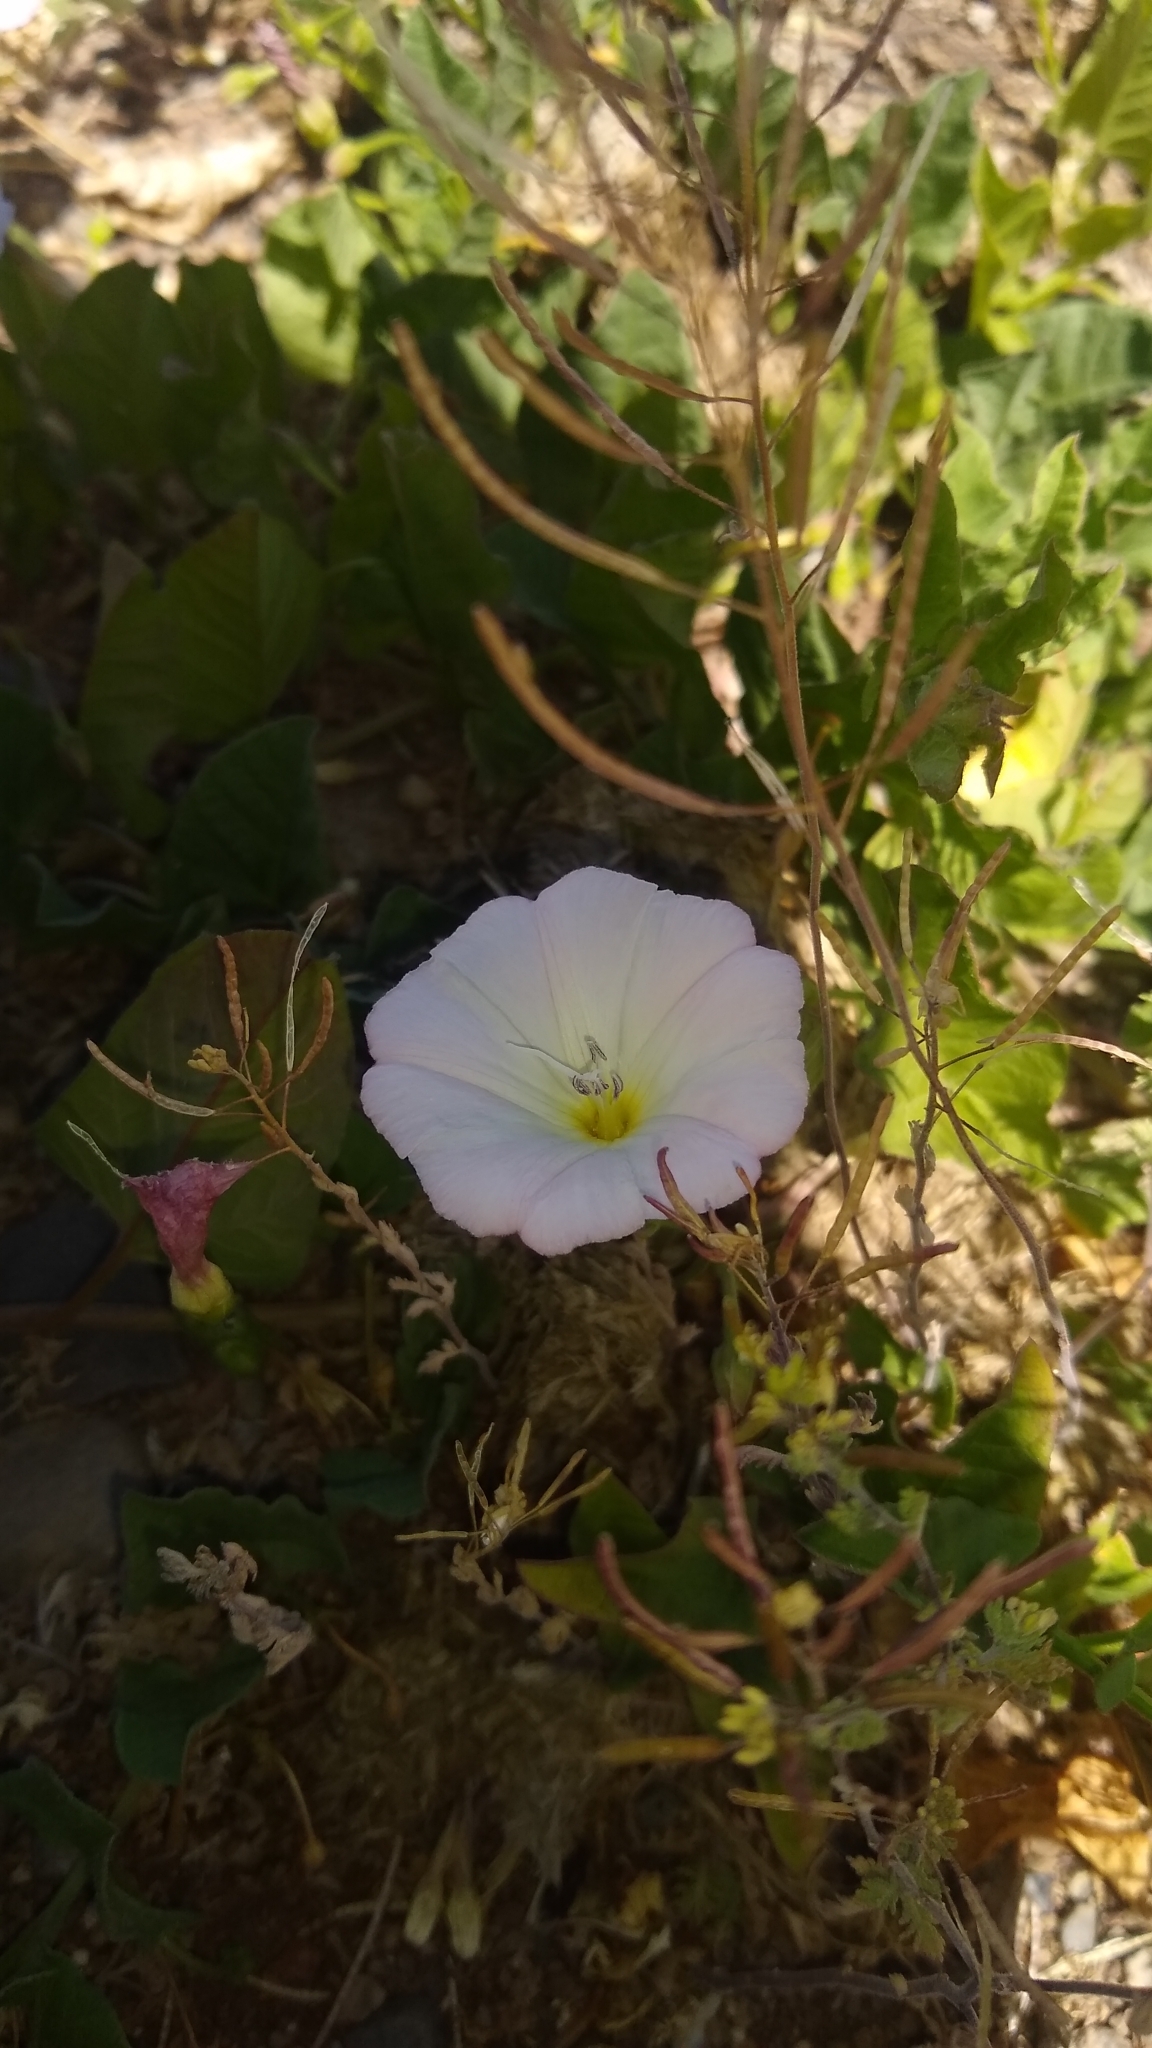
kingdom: Plantae
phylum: Tracheophyta
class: Magnoliopsida
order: Solanales
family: Convolvulaceae
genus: Convolvulus
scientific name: Convolvulus arvensis
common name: Field bindweed
